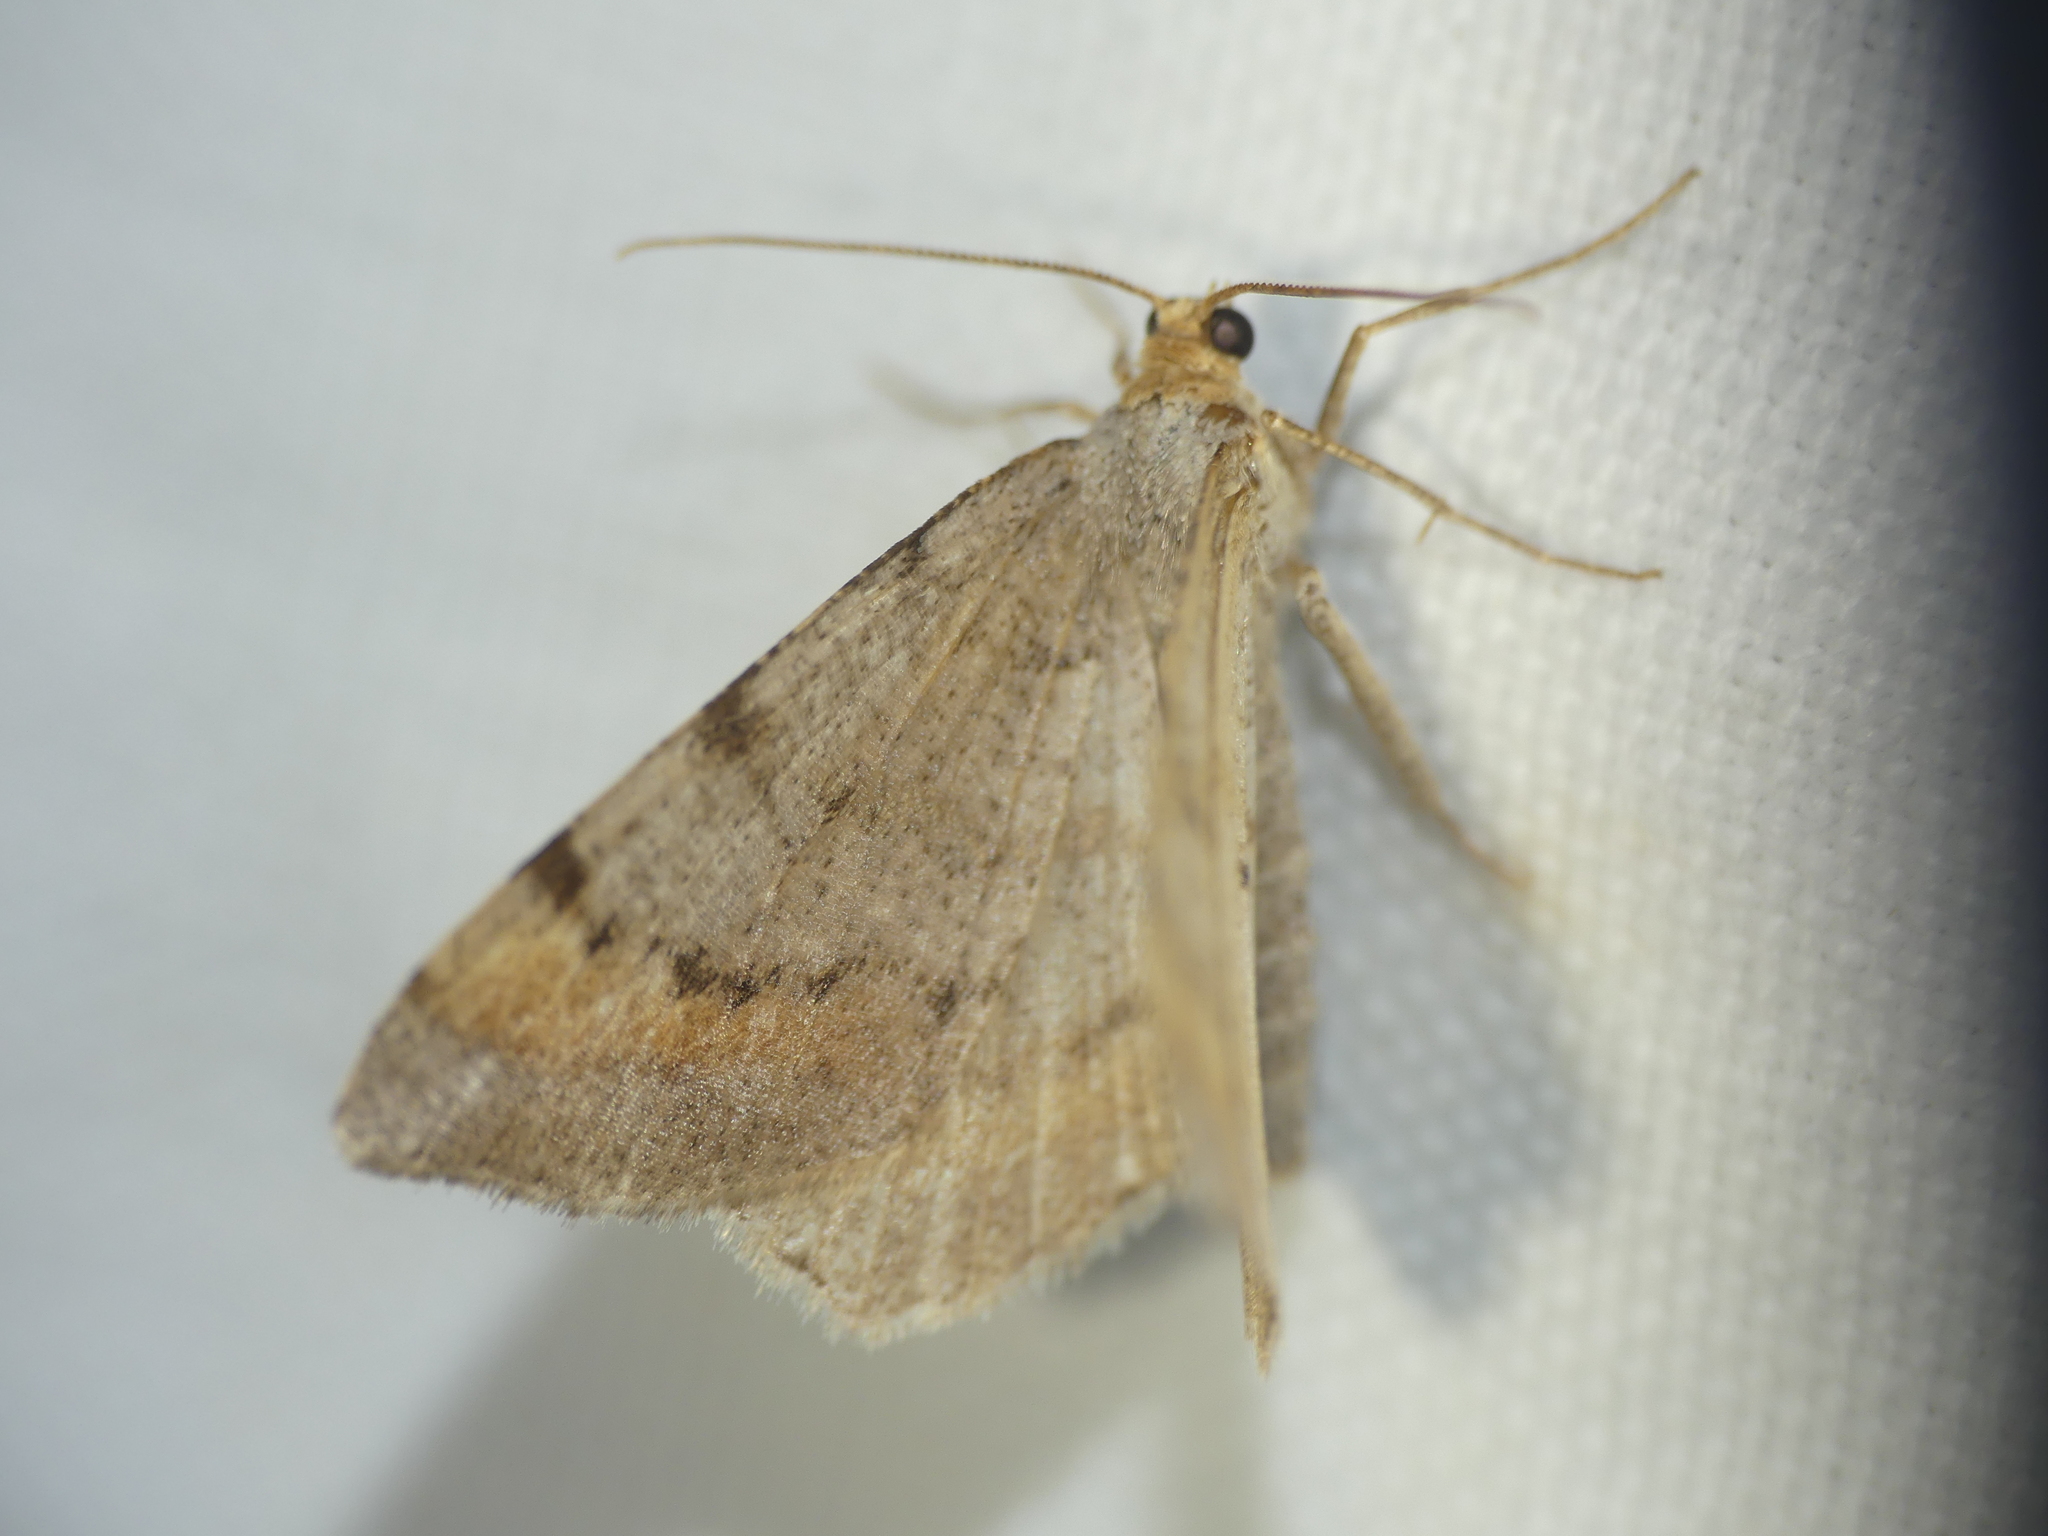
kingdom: Animalia
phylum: Arthropoda
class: Insecta
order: Lepidoptera
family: Geometridae
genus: Macaria
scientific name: Macaria liturata
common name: Tawny-barred angle
